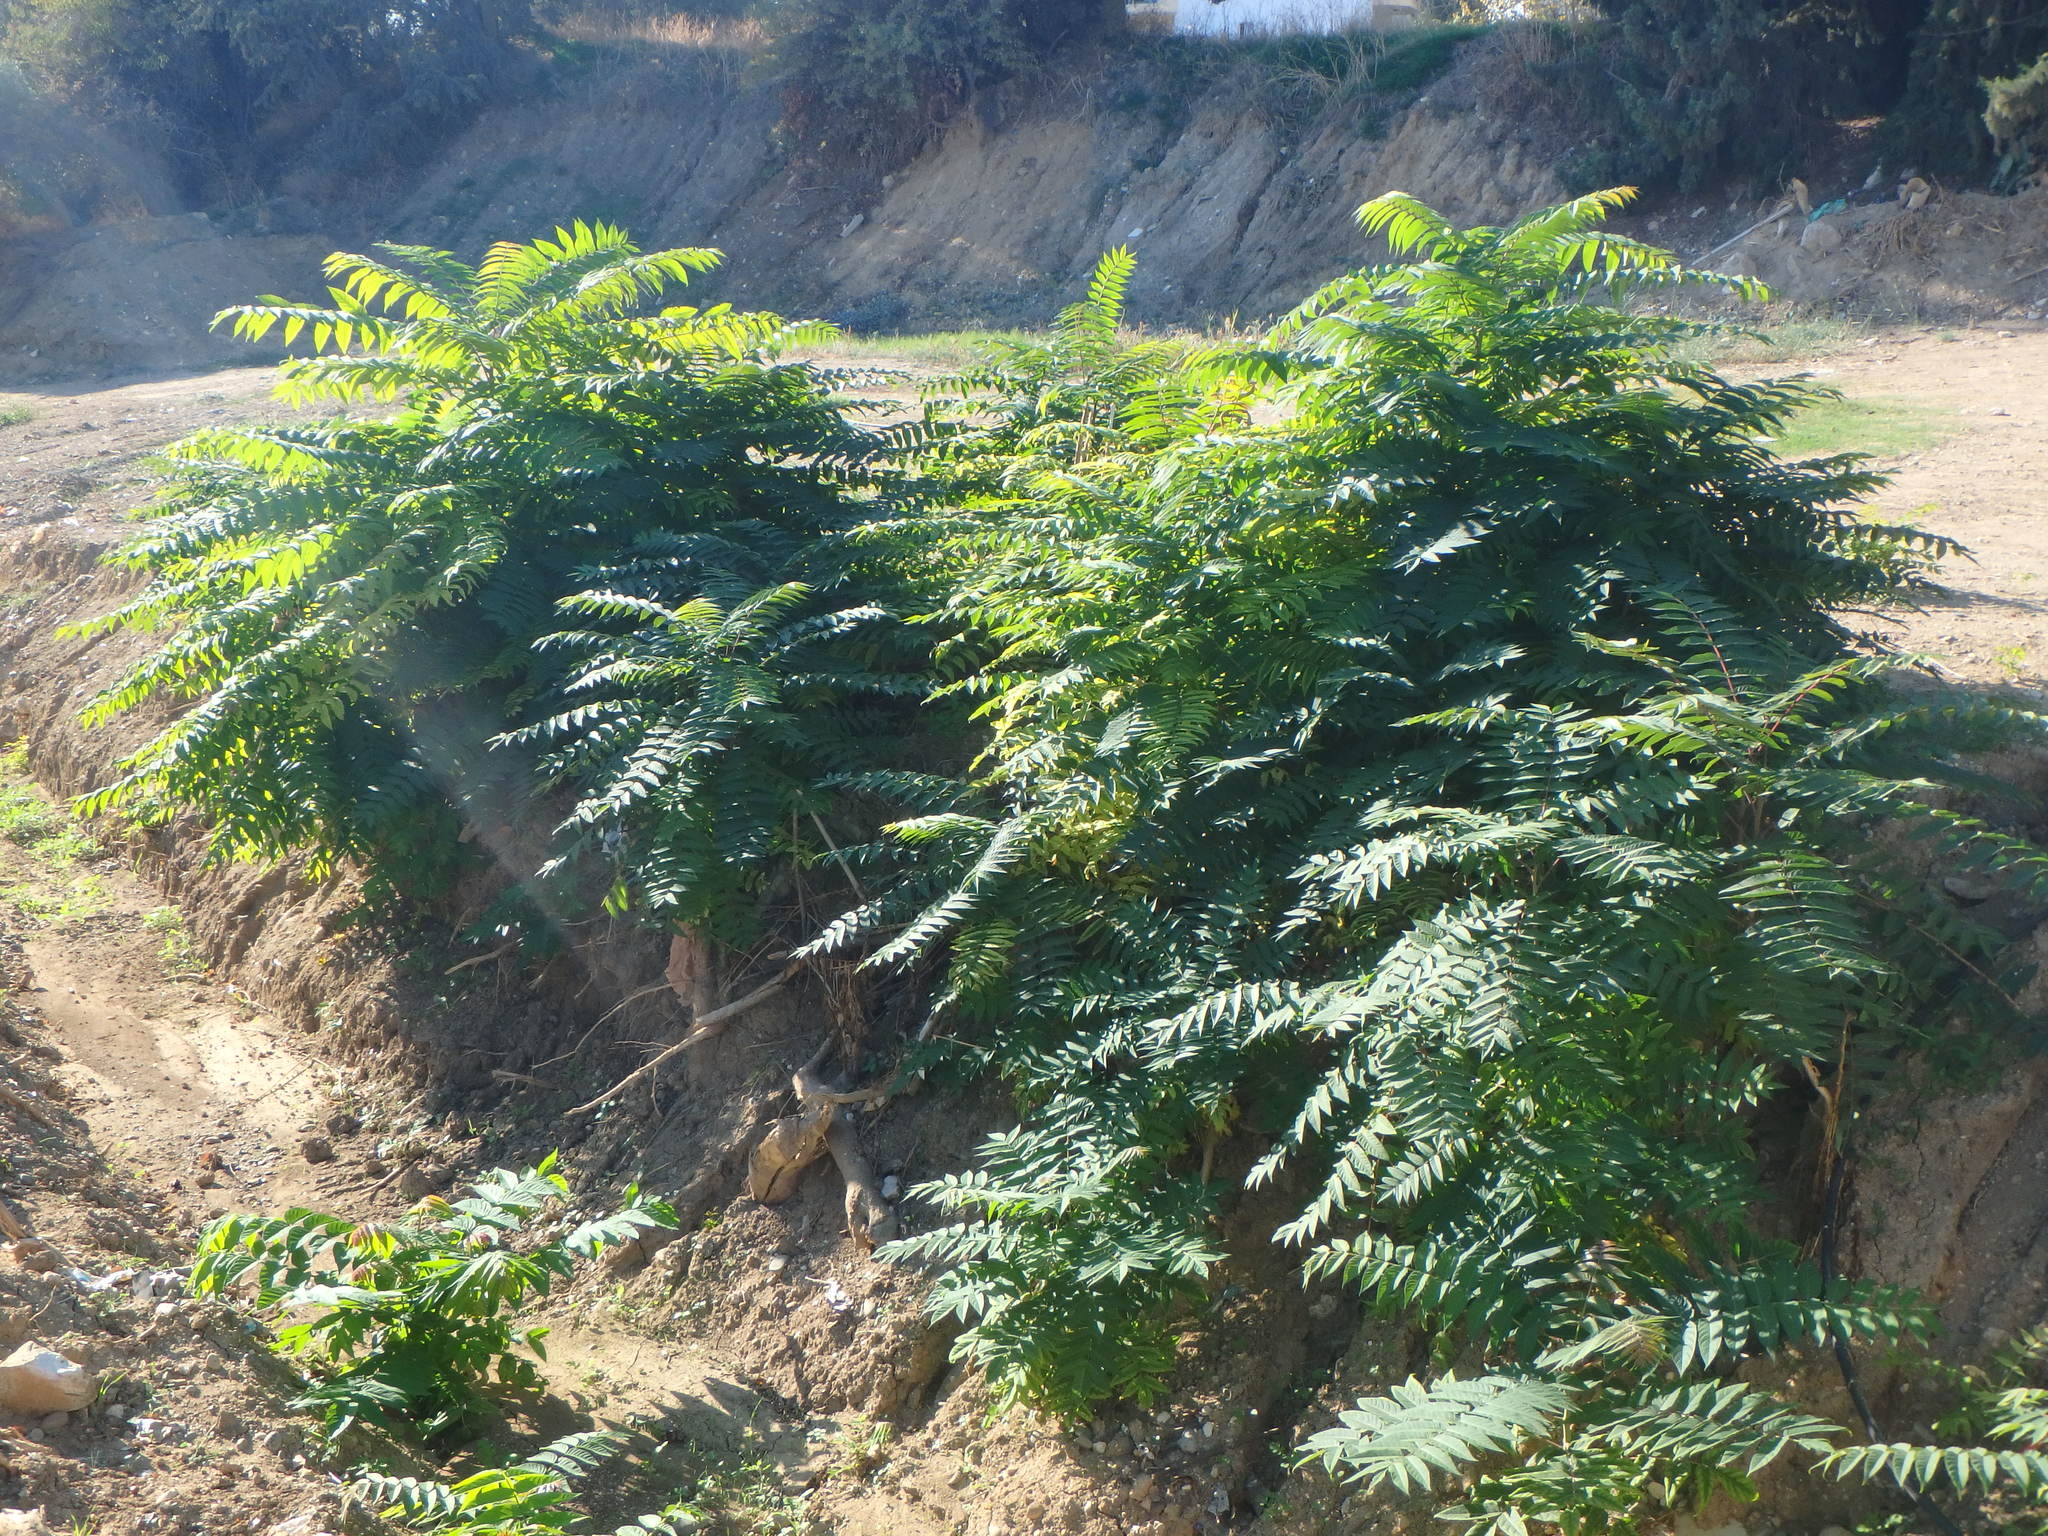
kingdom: Plantae
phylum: Tracheophyta
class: Magnoliopsida
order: Sapindales
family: Simaroubaceae
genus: Ailanthus
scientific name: Ailanthus altissima
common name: Tree-of-heaven
